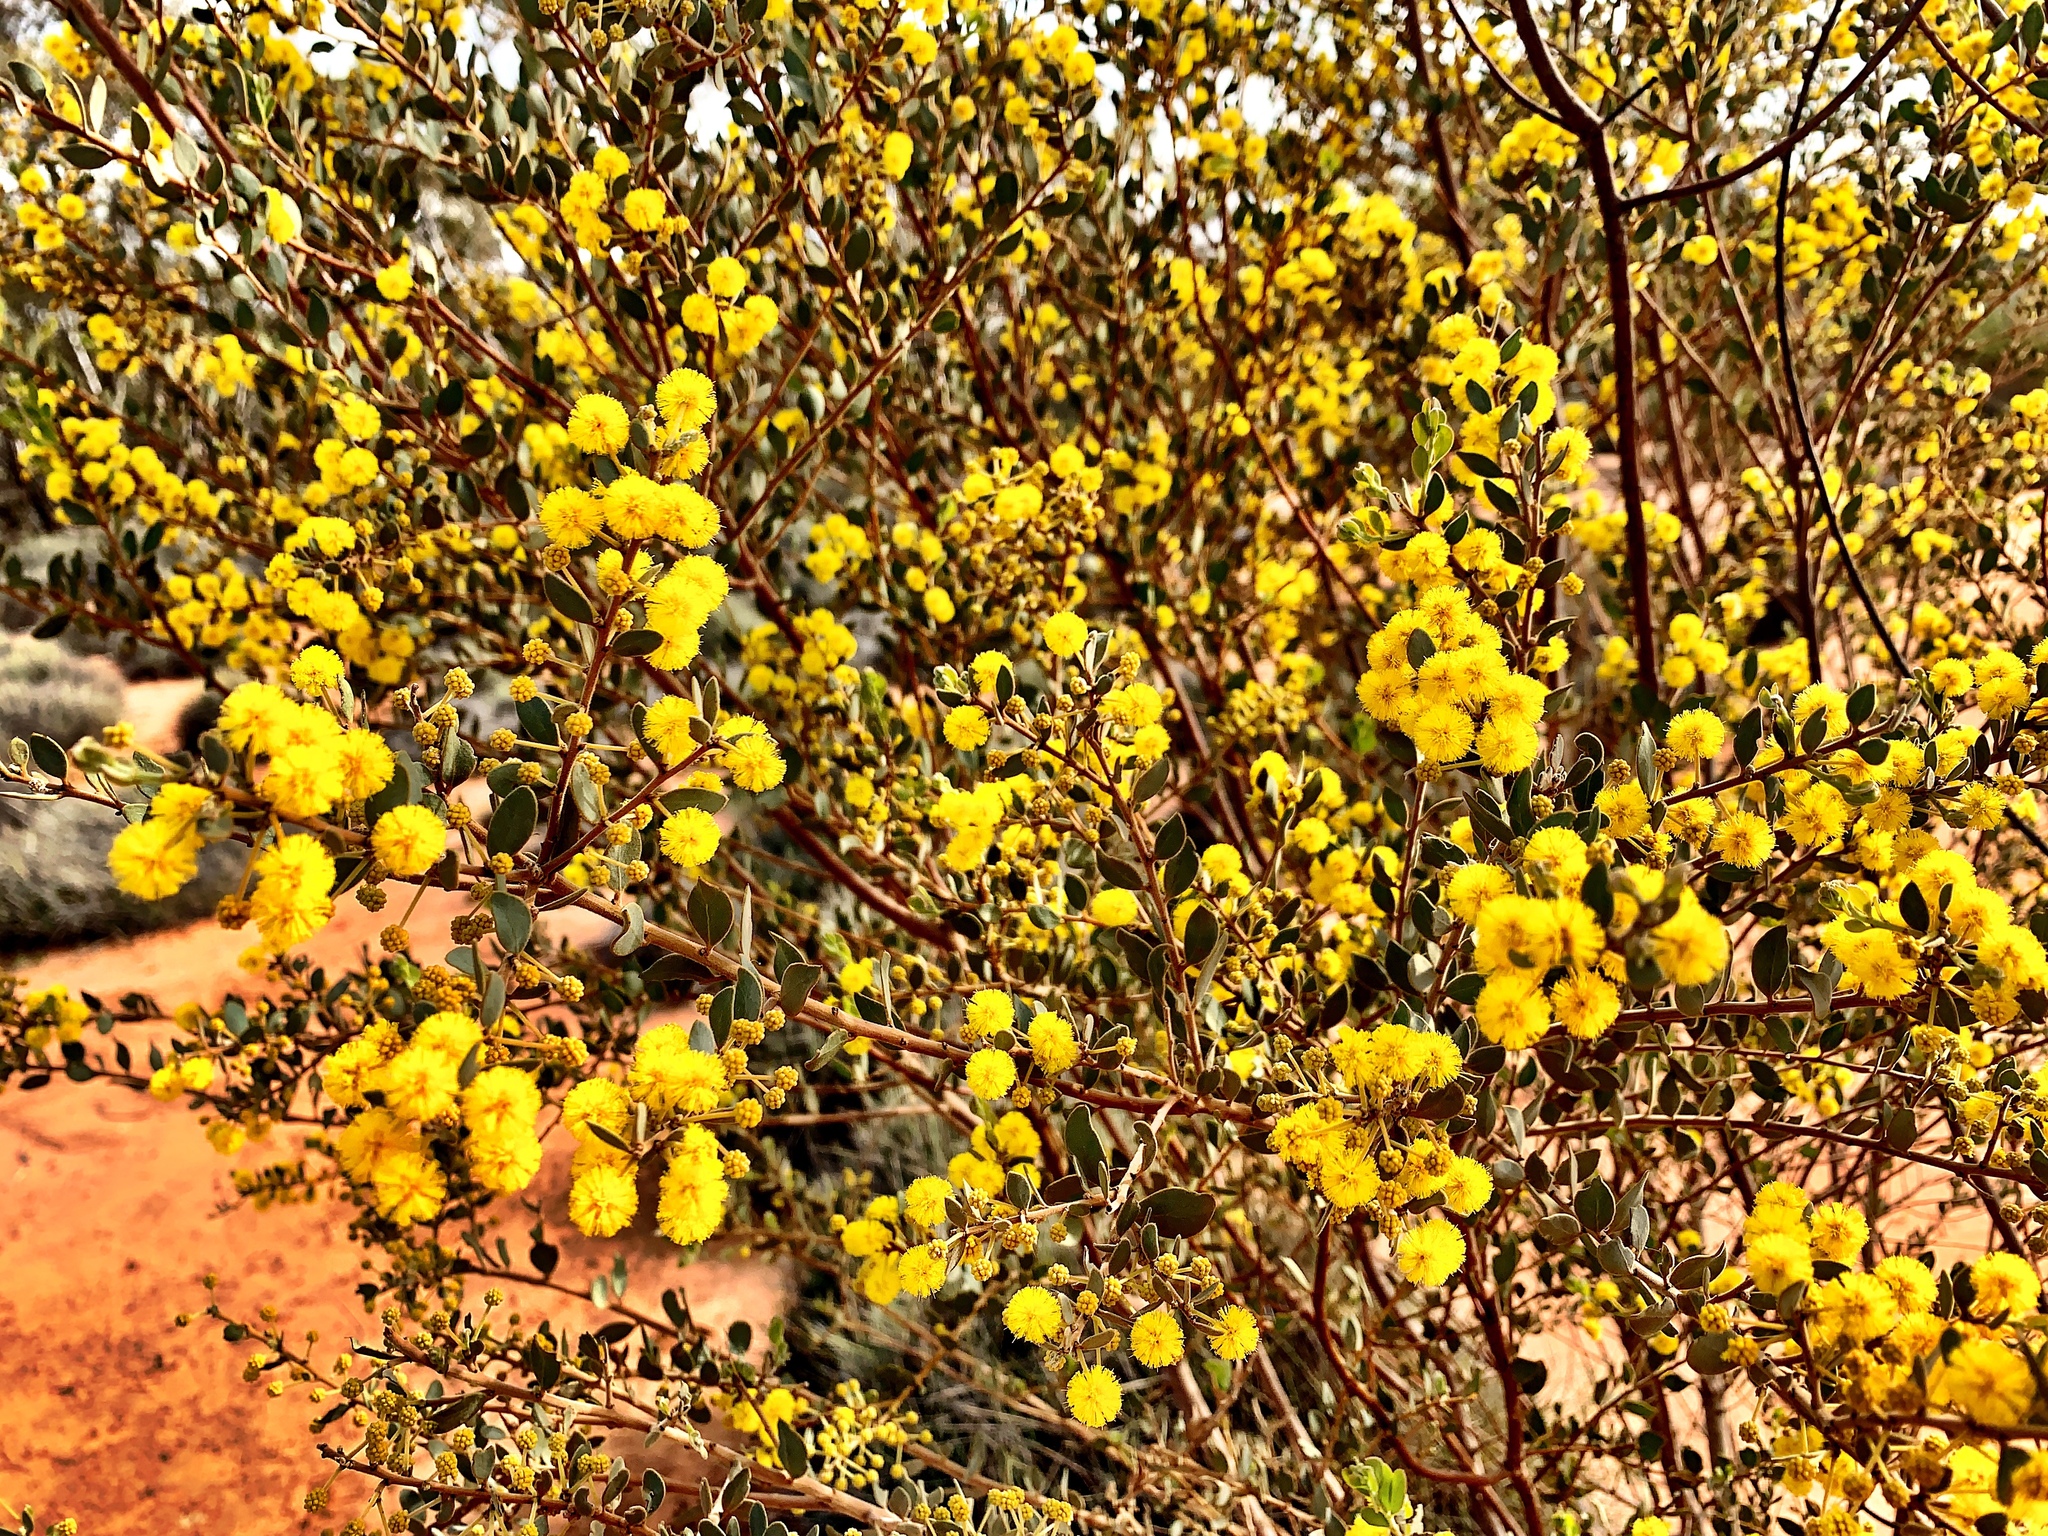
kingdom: Plantae
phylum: Tracheophyta
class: Magnoliopsida
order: Fabales
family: Fabaceae
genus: Acacia
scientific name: Acacia brachybotrya
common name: Grey mulga
